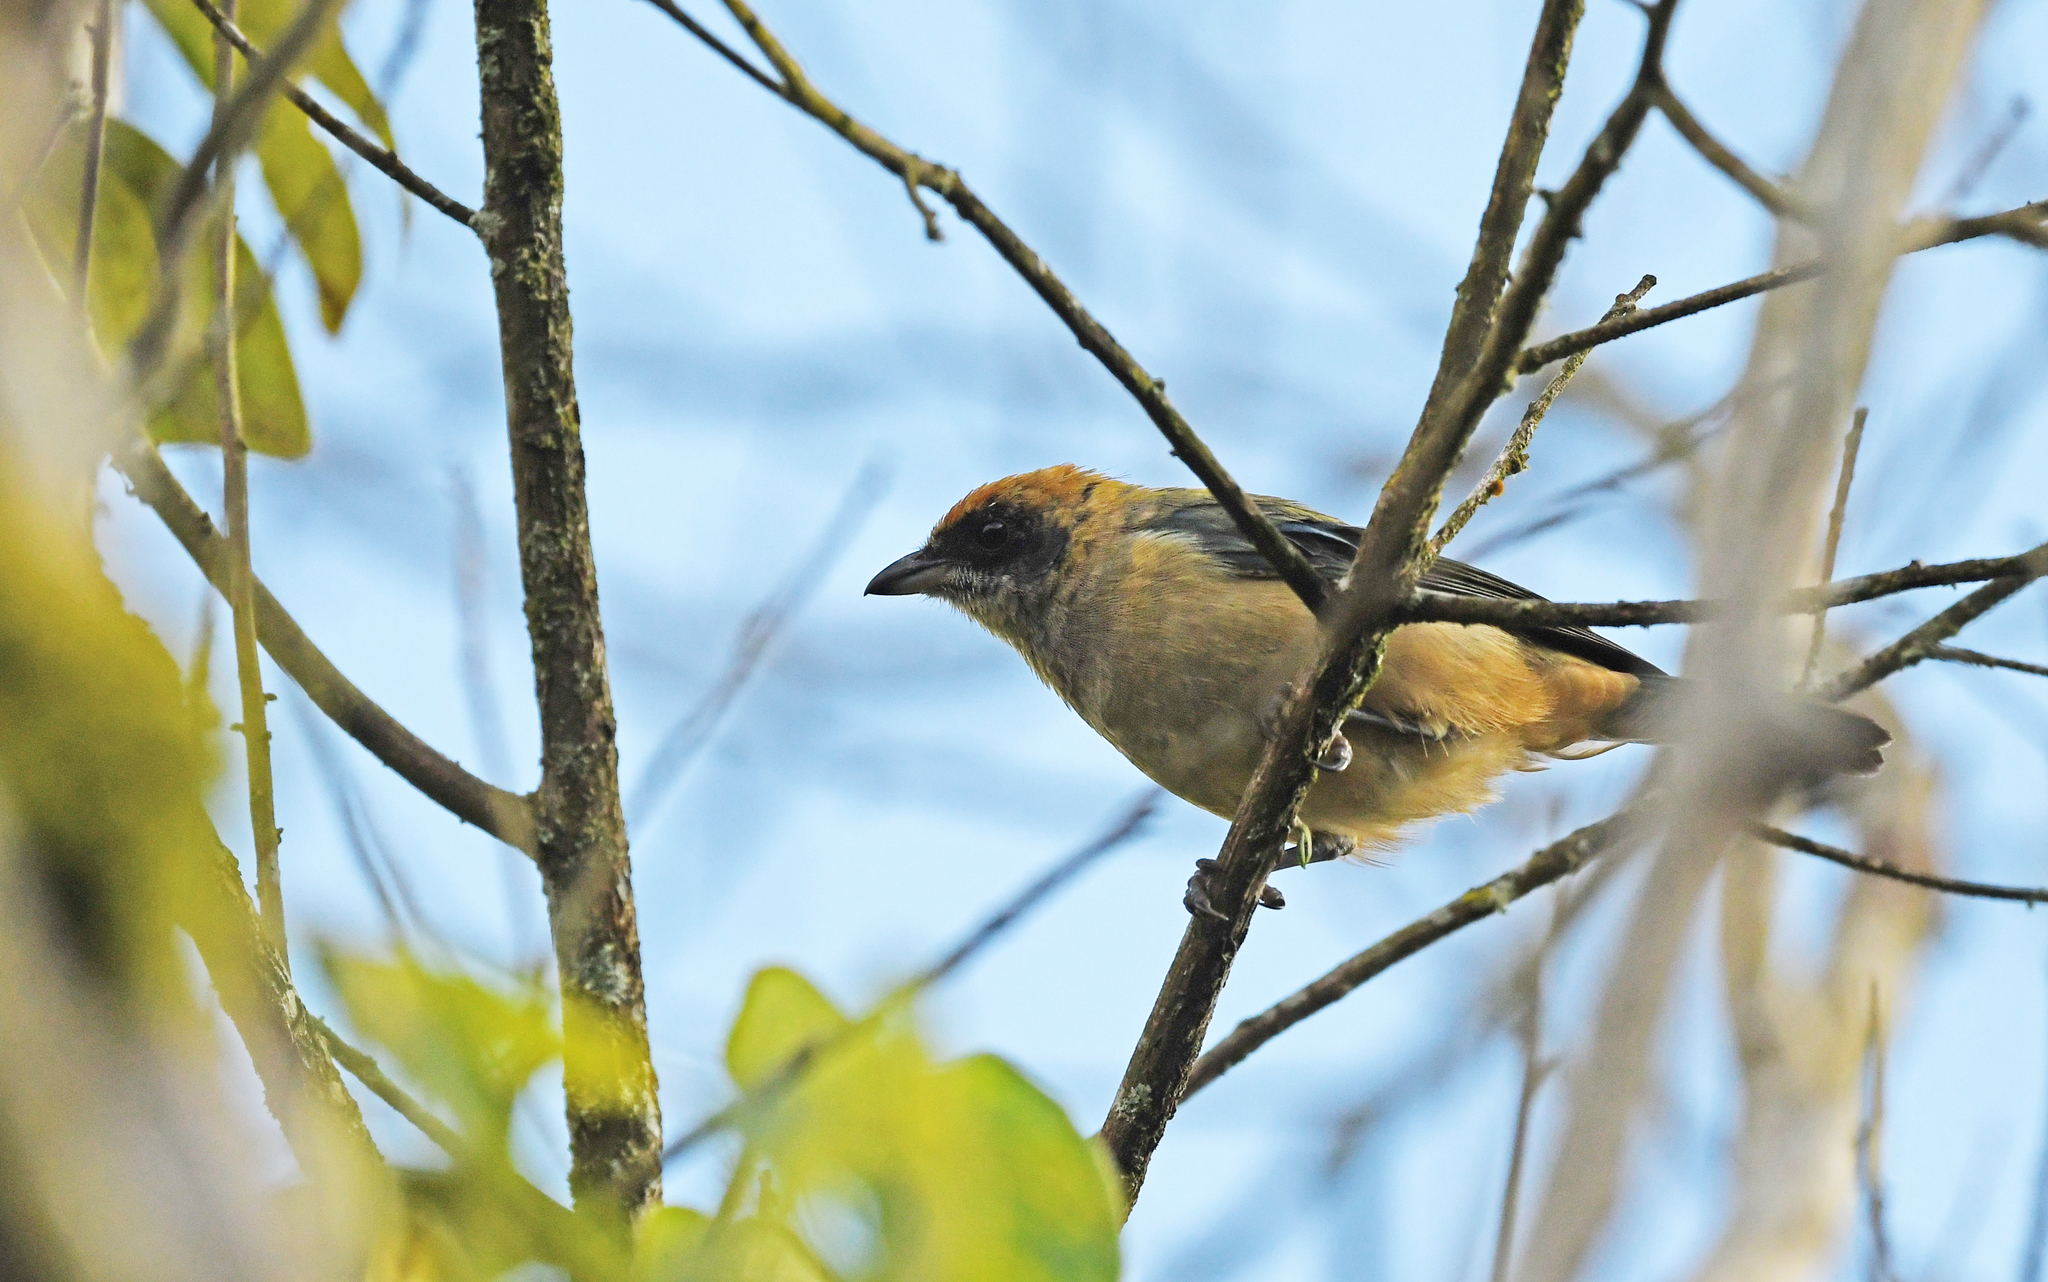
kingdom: Animalia
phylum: Chordata
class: Aves
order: Passeriformes
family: Thraupidae
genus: Stilpnia
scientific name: Stilpnia cayana
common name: Burnished-buff tanager
